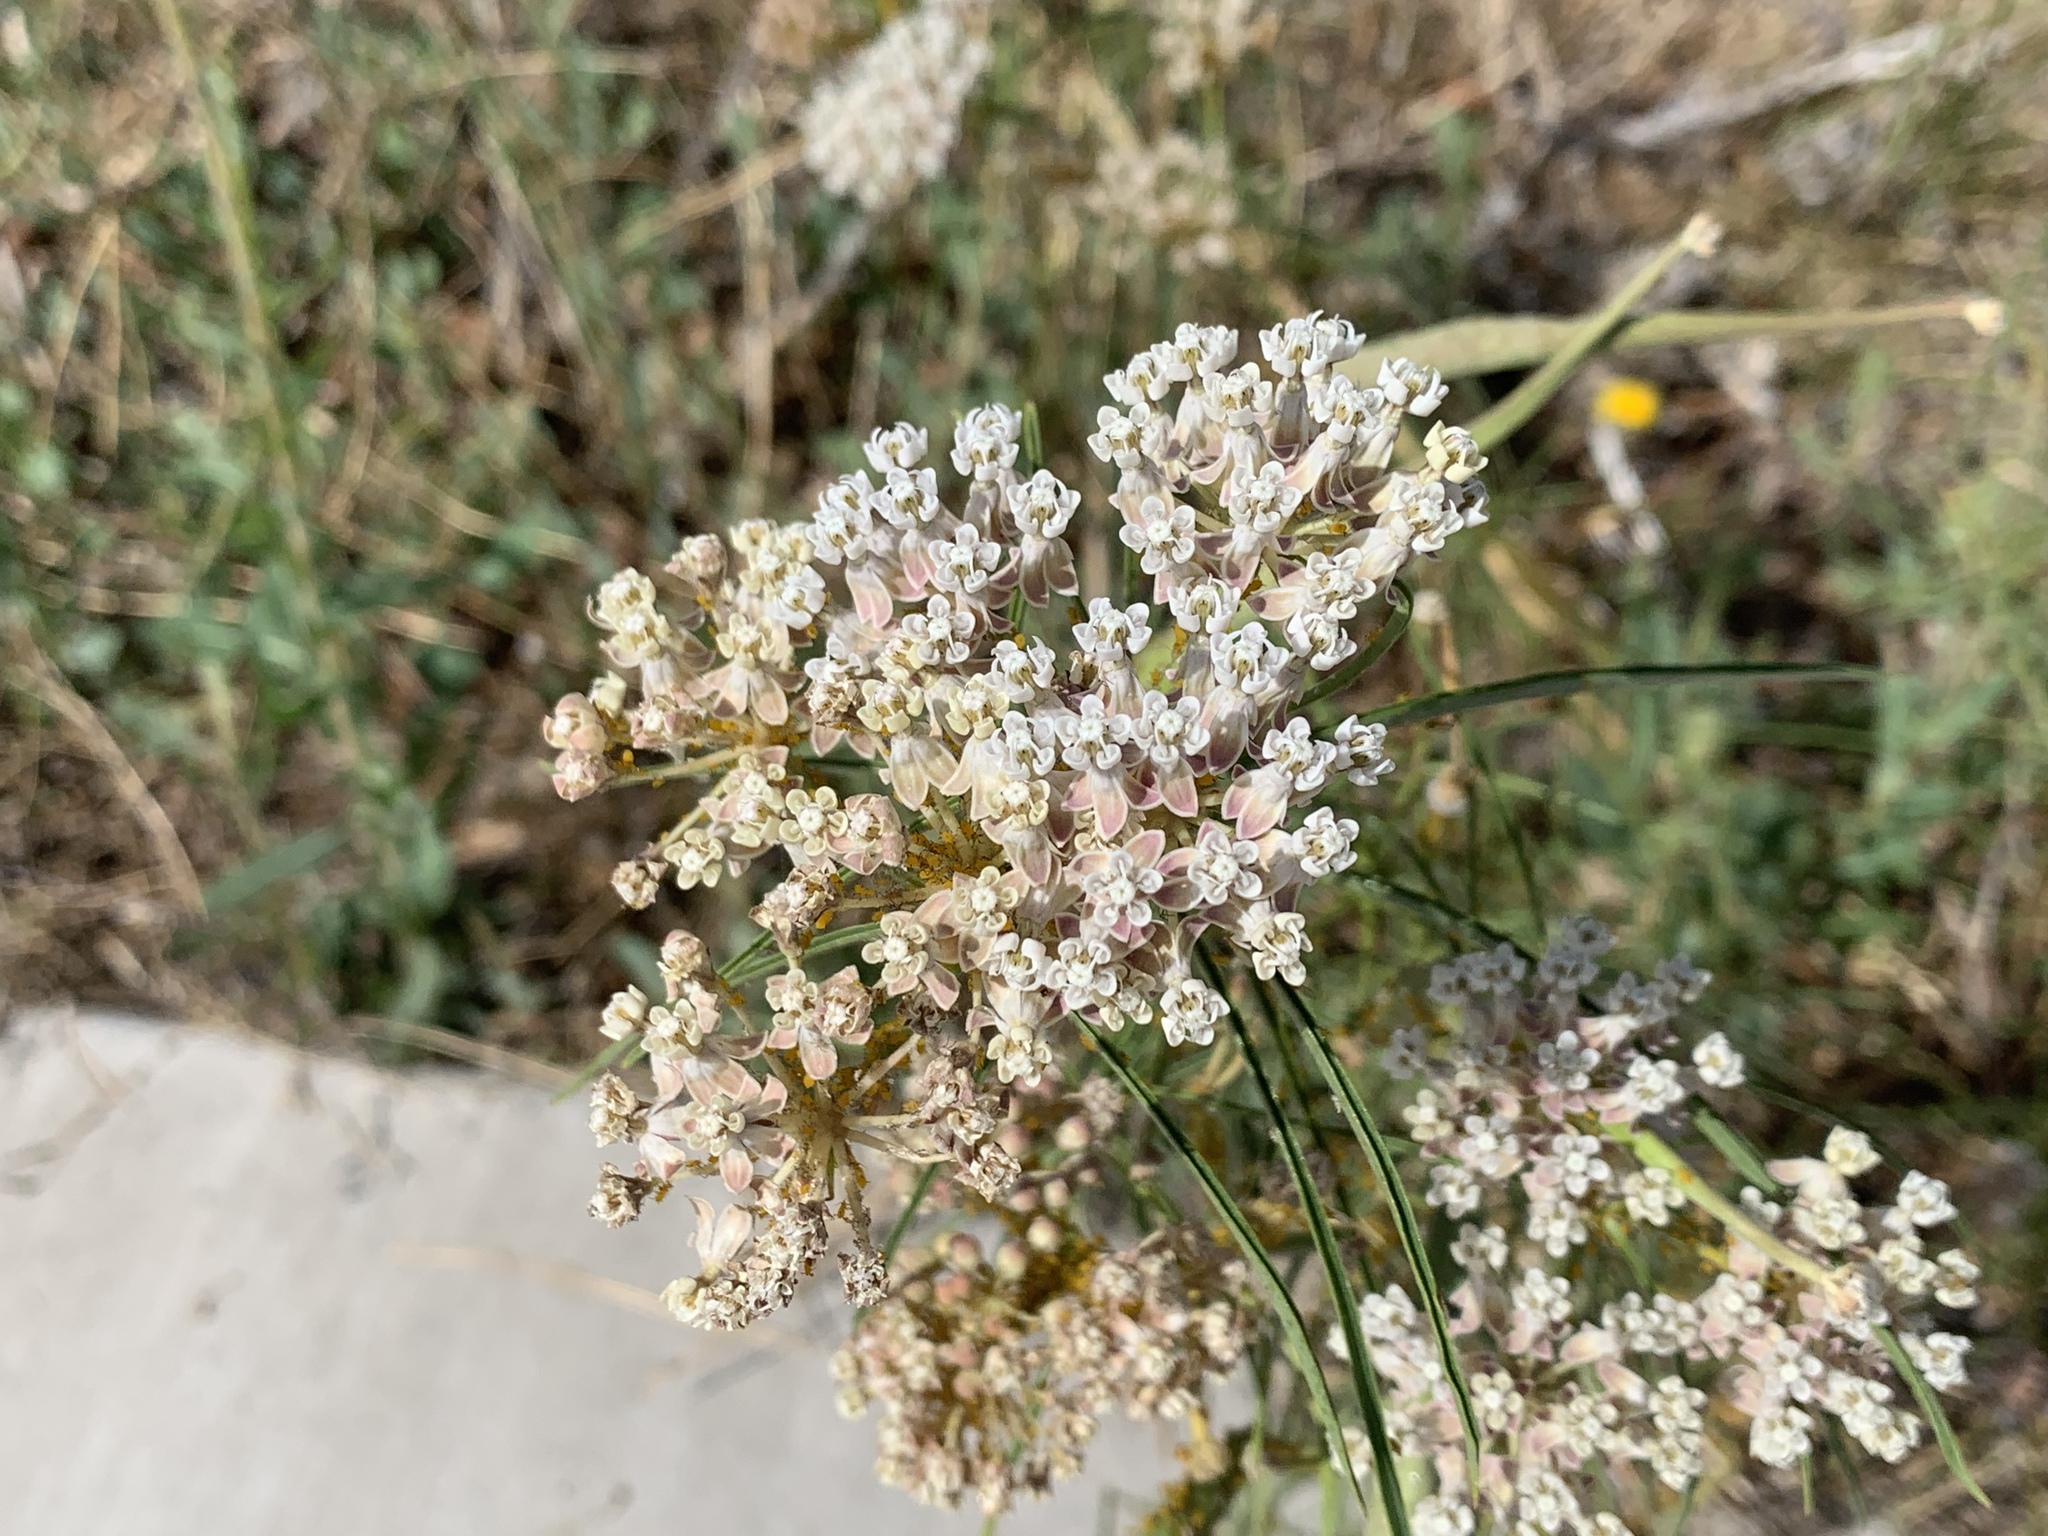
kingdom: Plantae
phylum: Tracheophyta
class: Magnoliopsida
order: Gentianales
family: Apocynaceae
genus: Asclepias
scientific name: Asclepias fascicularis
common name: Mexican milkweed
